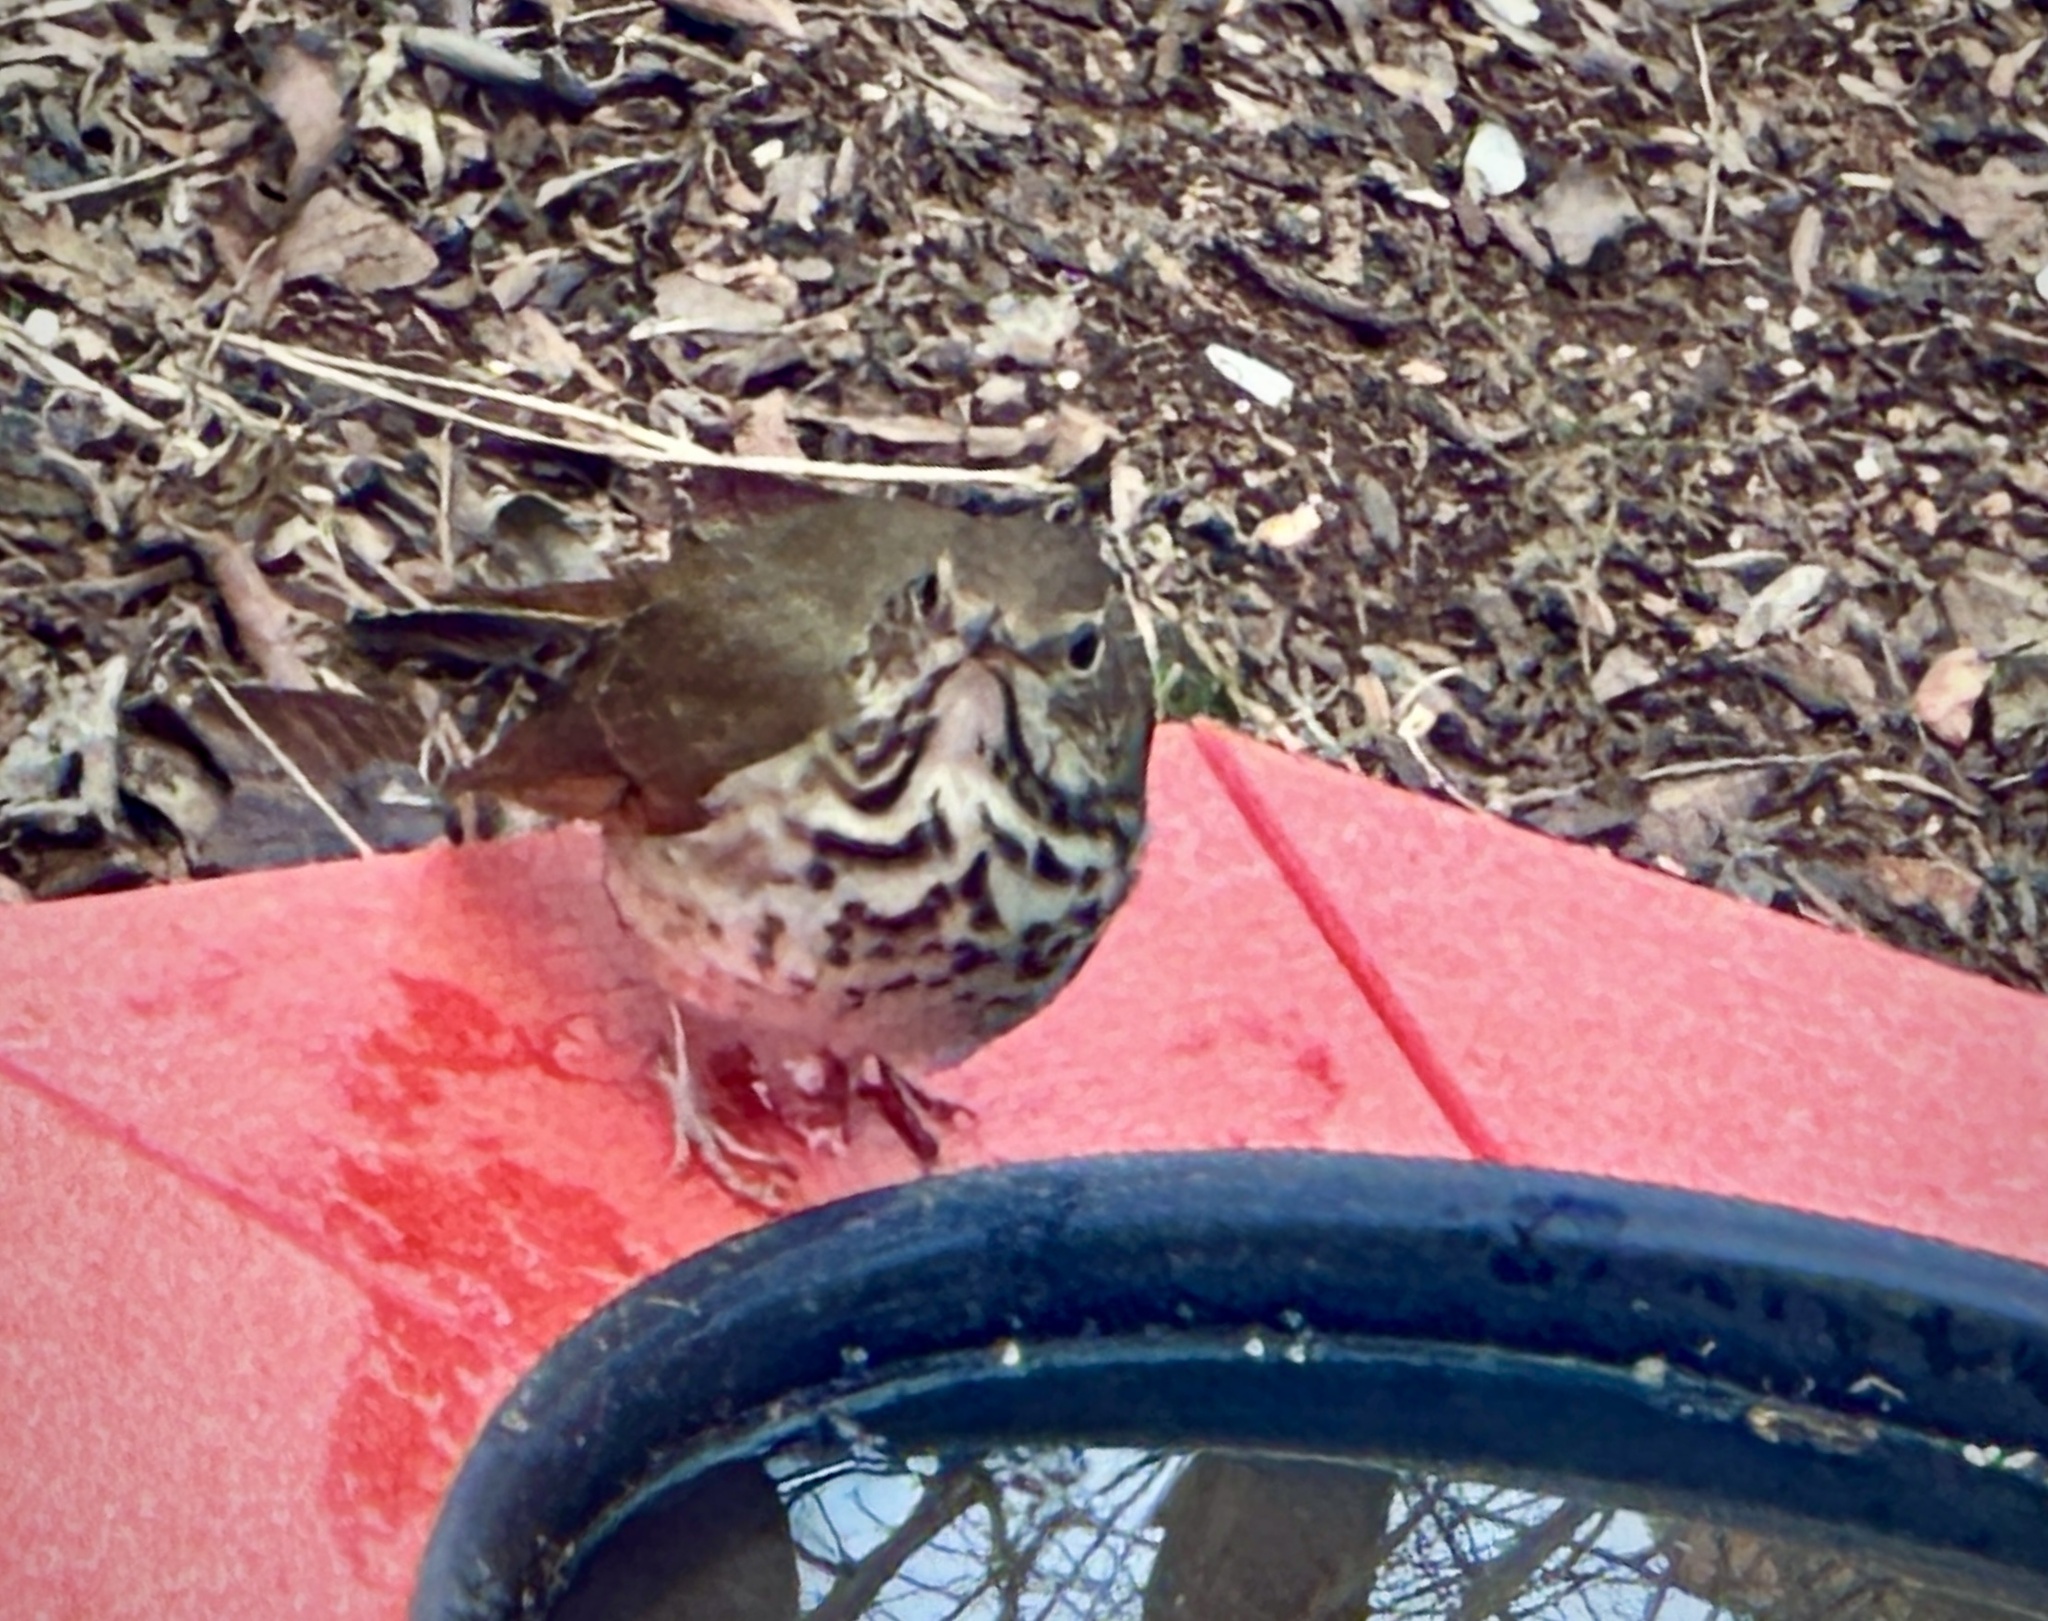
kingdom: Animalia
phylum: Chordata
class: Aves
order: Passeriformes
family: Turdidae
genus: Catharus
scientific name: Catharus guttatus
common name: Hermit thrush
